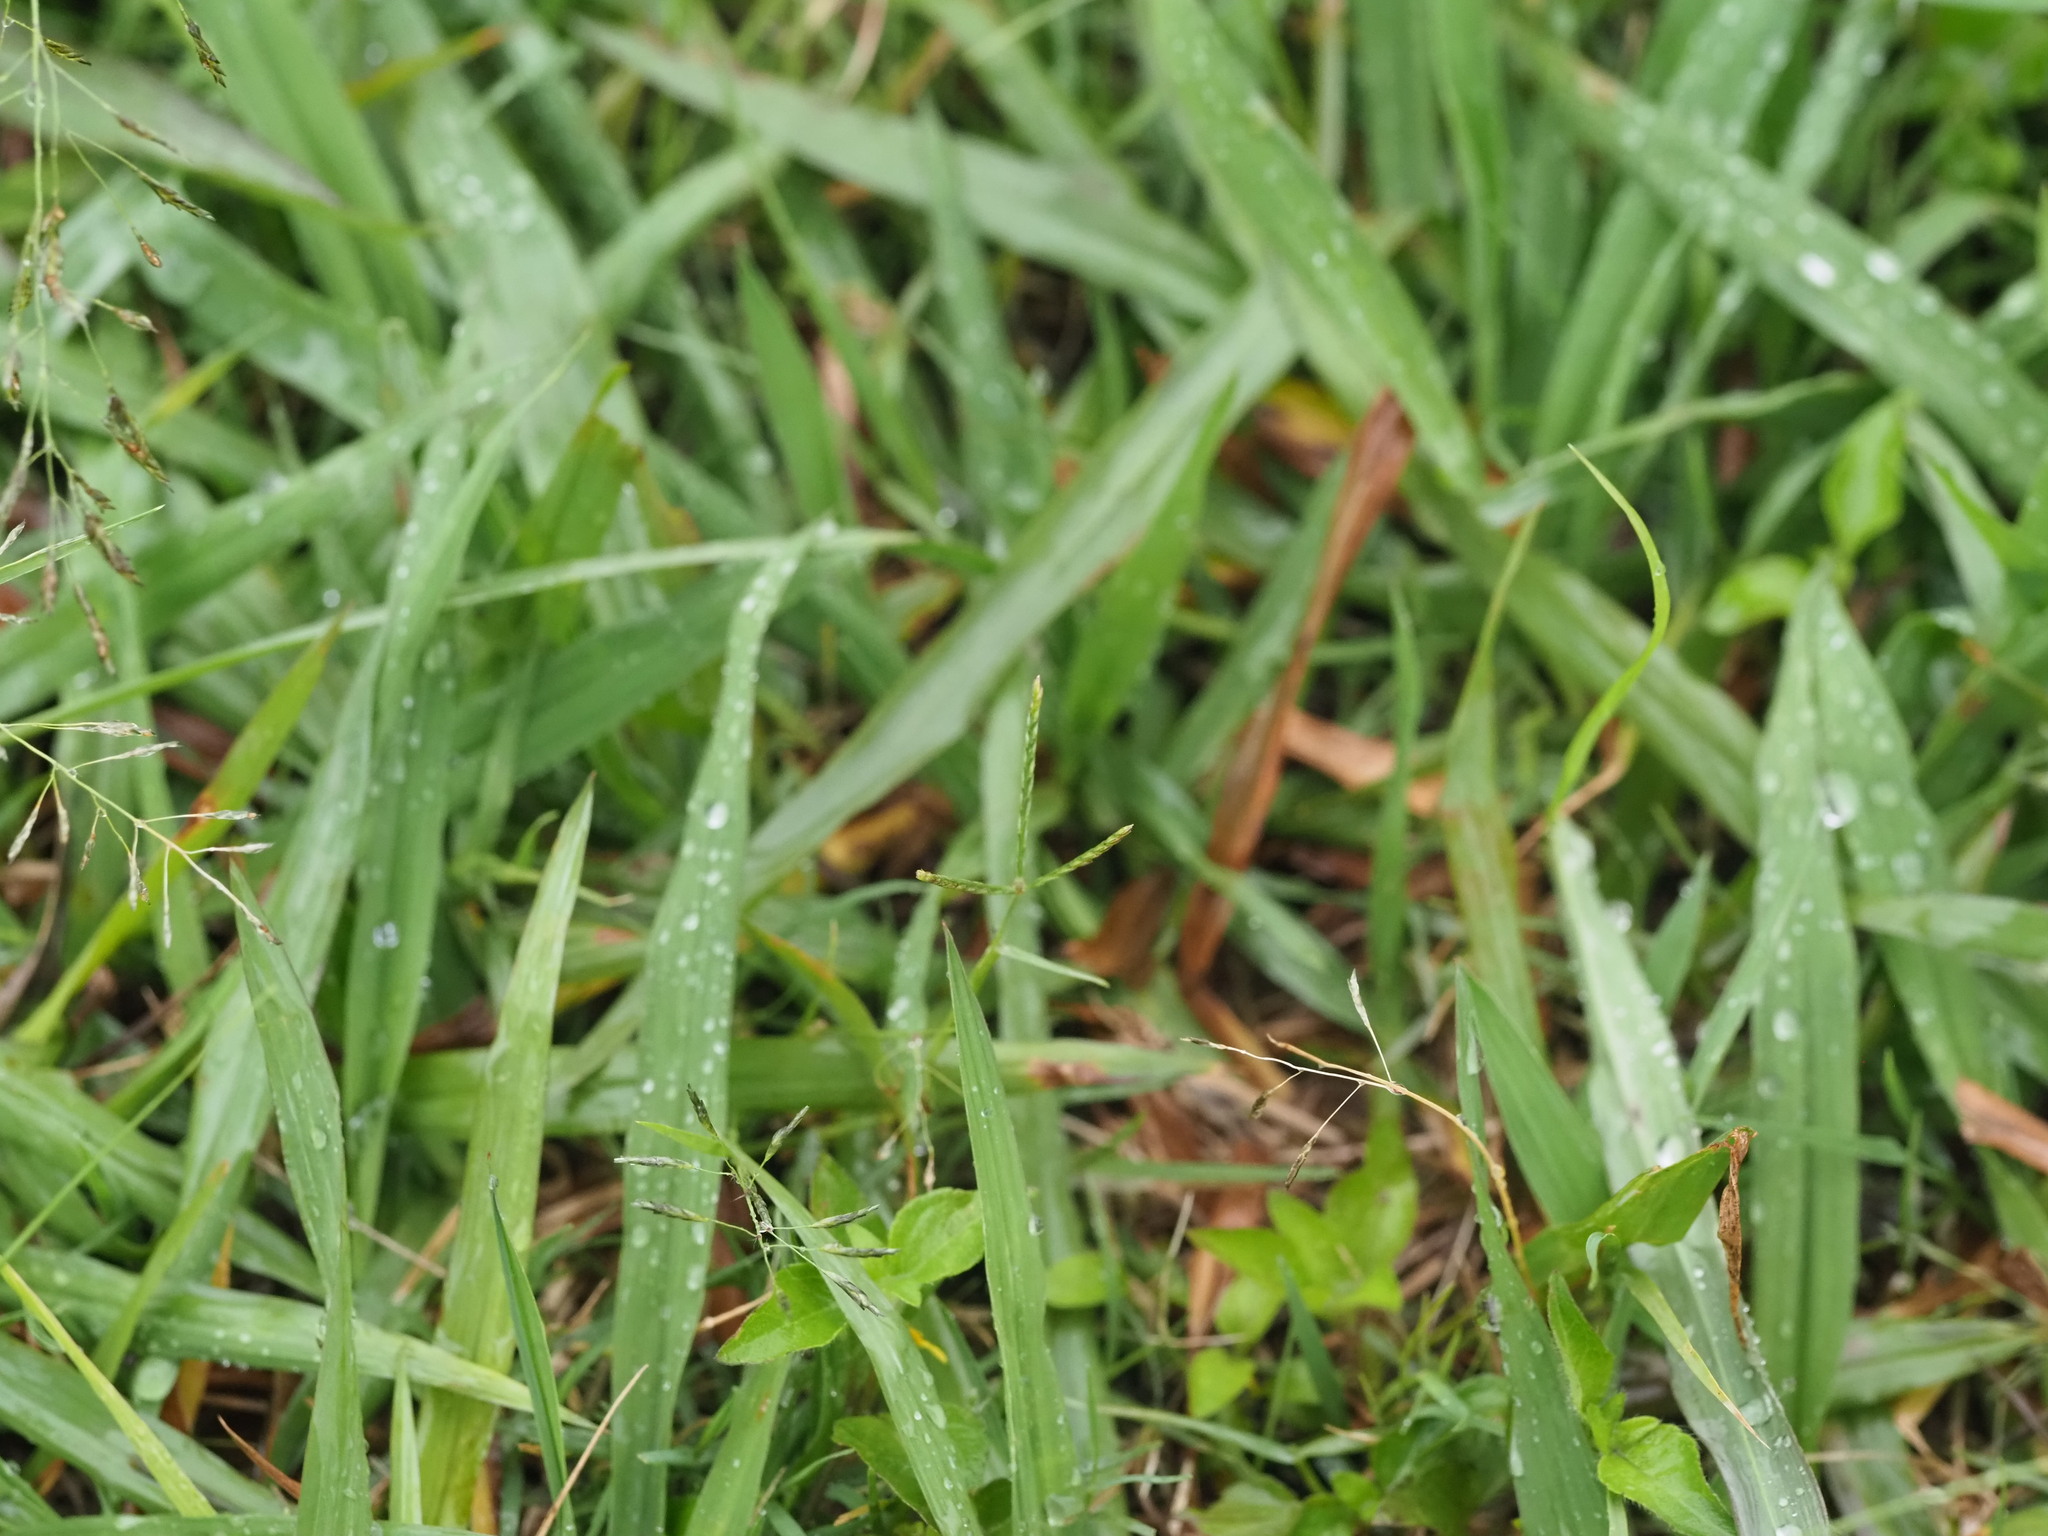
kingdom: Plantae
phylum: Tracheophyta
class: Liliopsida
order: Poales
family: Poaceae
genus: Cynodon
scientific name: Cynodon dactylon
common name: Bermuda grass
